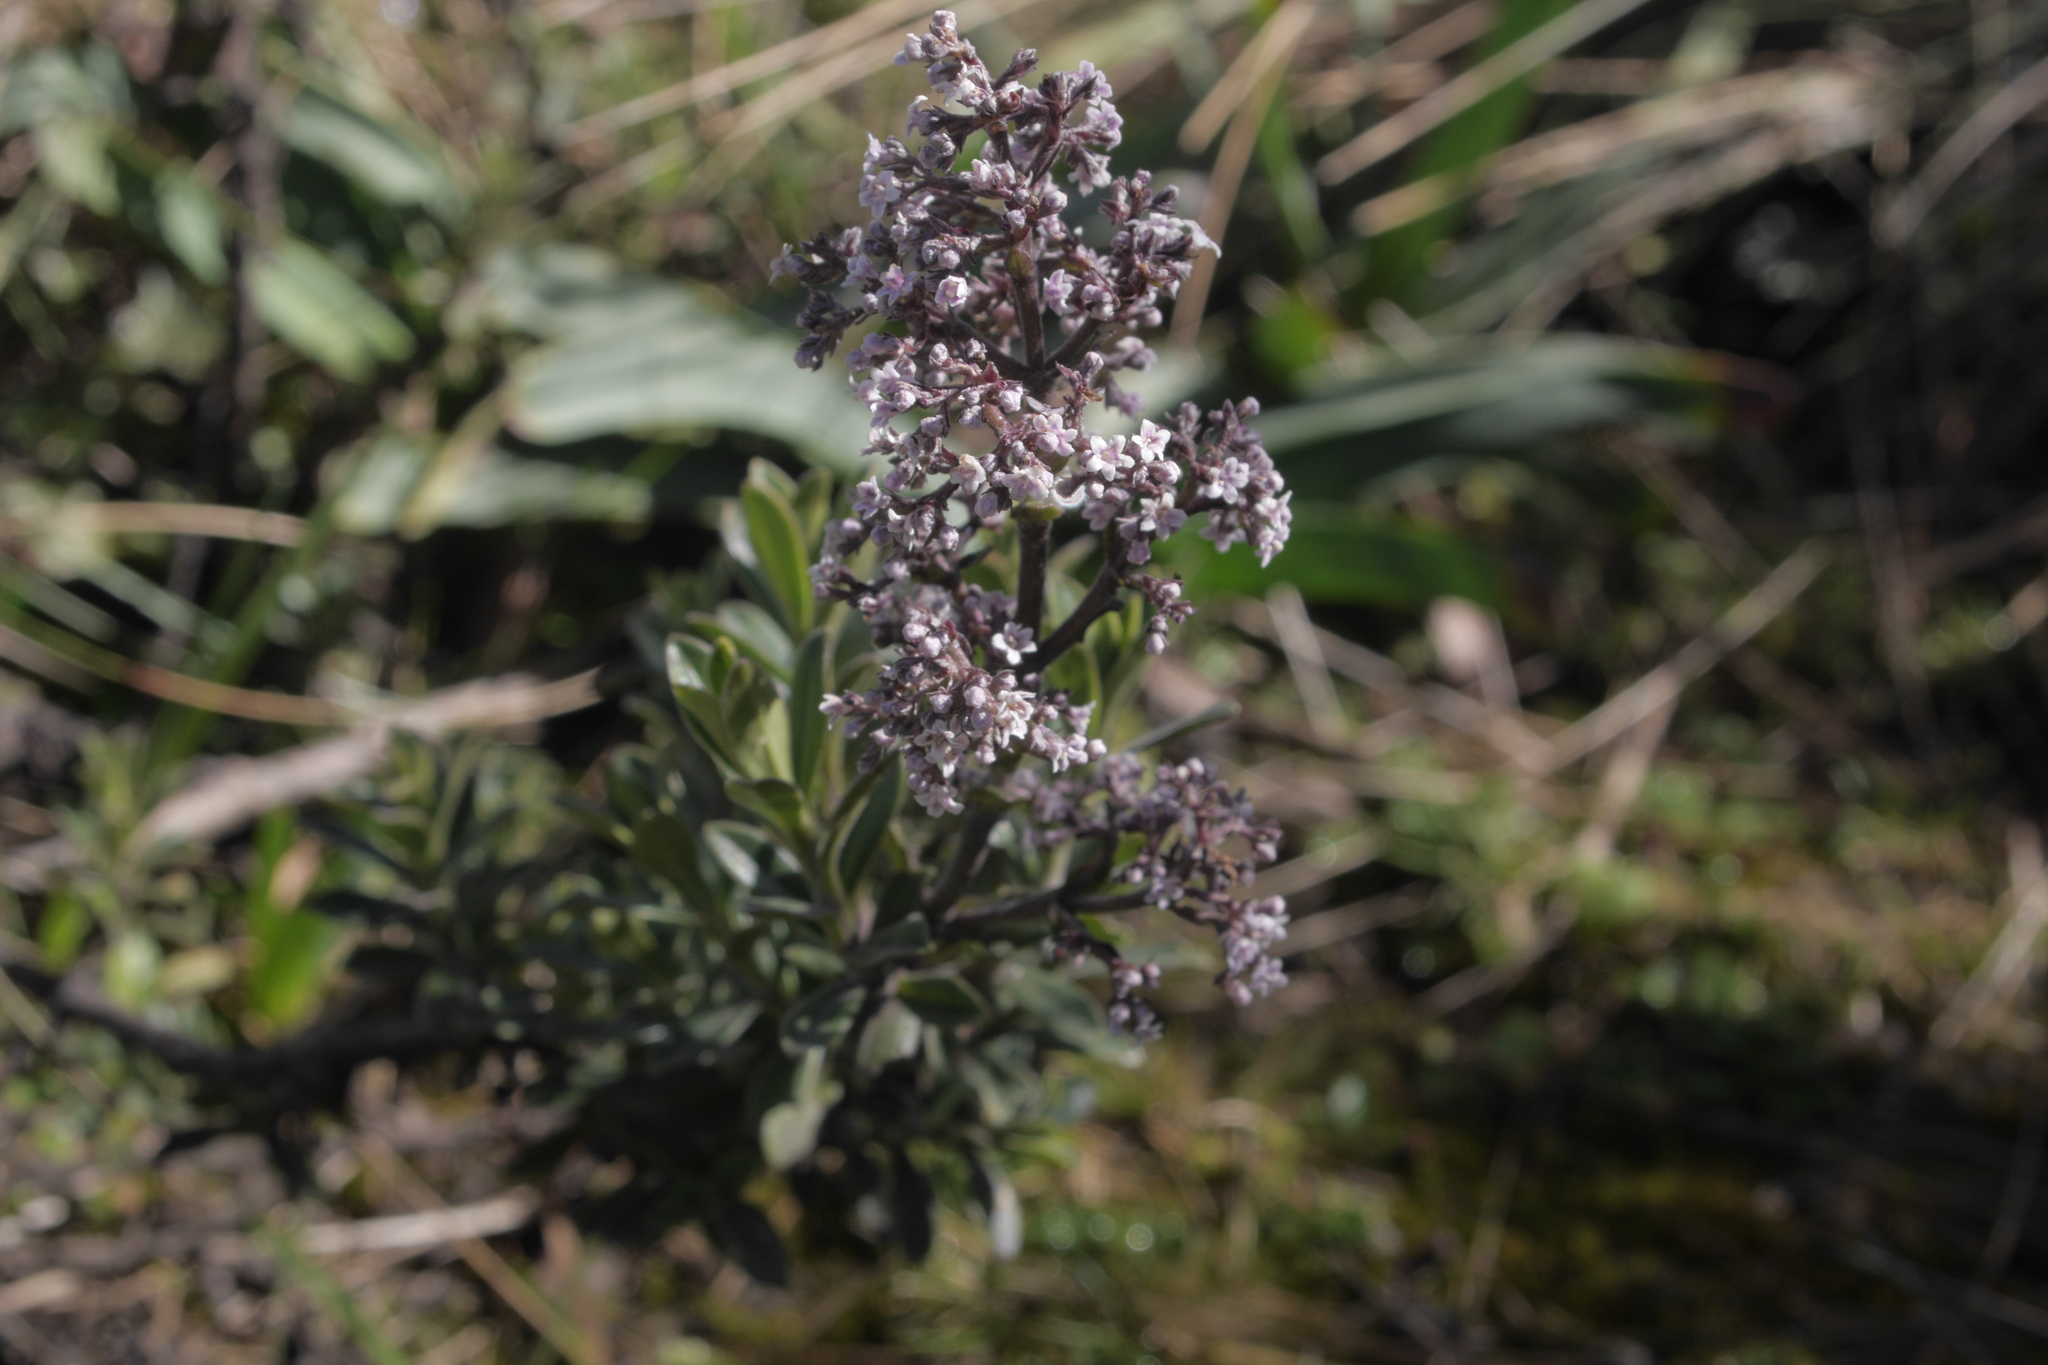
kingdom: Plantae
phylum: Tracheophyta
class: Magnoliopsida
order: Dipsacales
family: Caprifoliaceae
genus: Valeriana
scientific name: Valeriana microphylla
